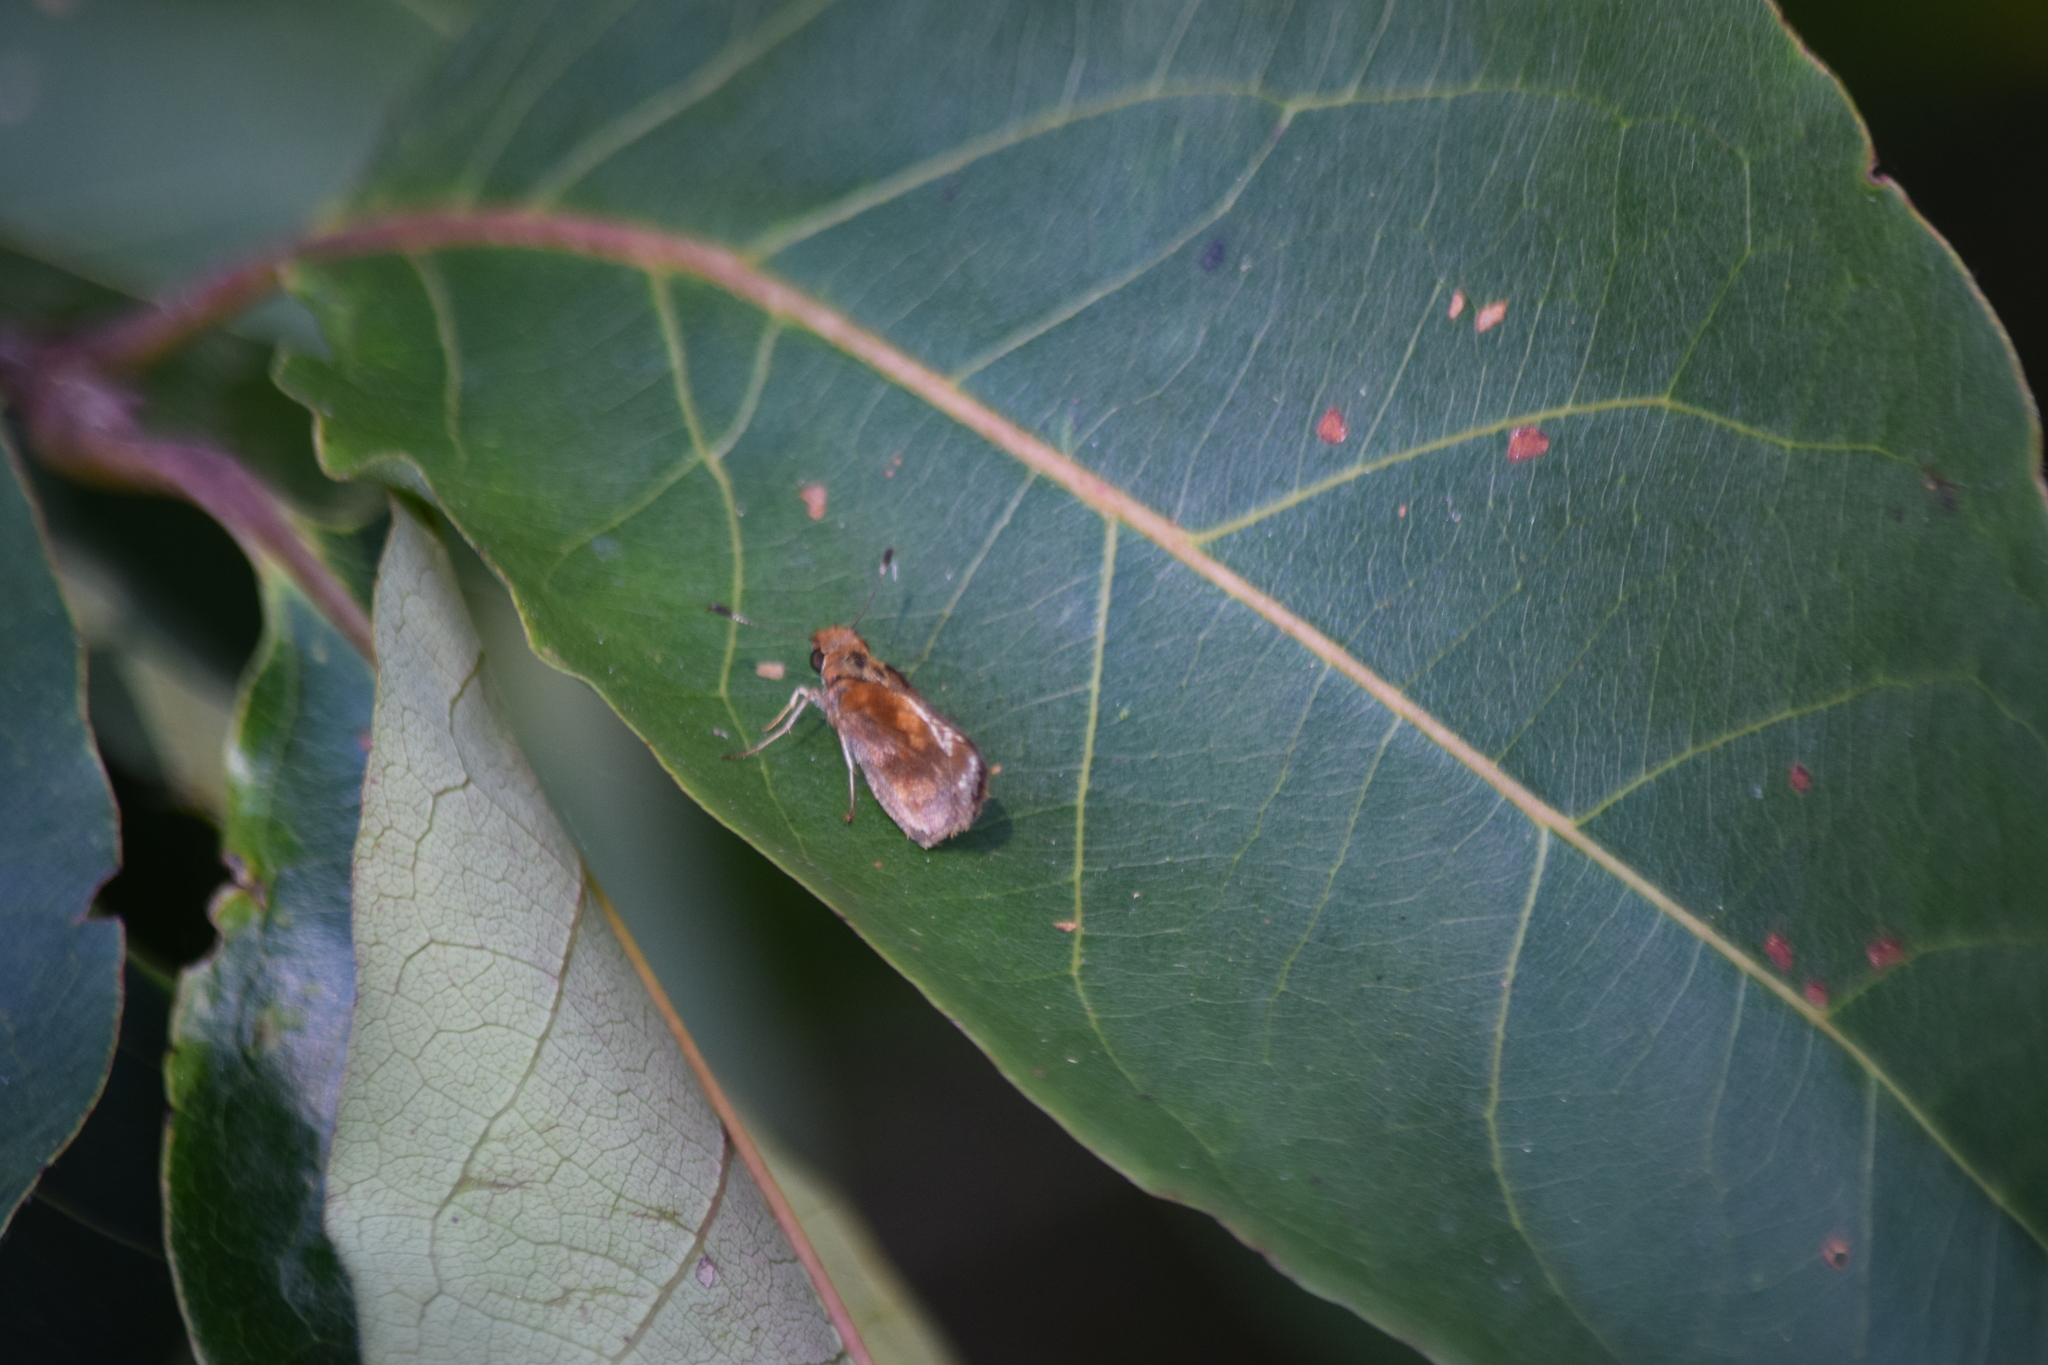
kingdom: Animalia
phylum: Arthropoda
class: Insecta
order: Lepidoptera
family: Hesperiidae
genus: Lon
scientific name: Lon zabulon
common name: Zabulon skipper
